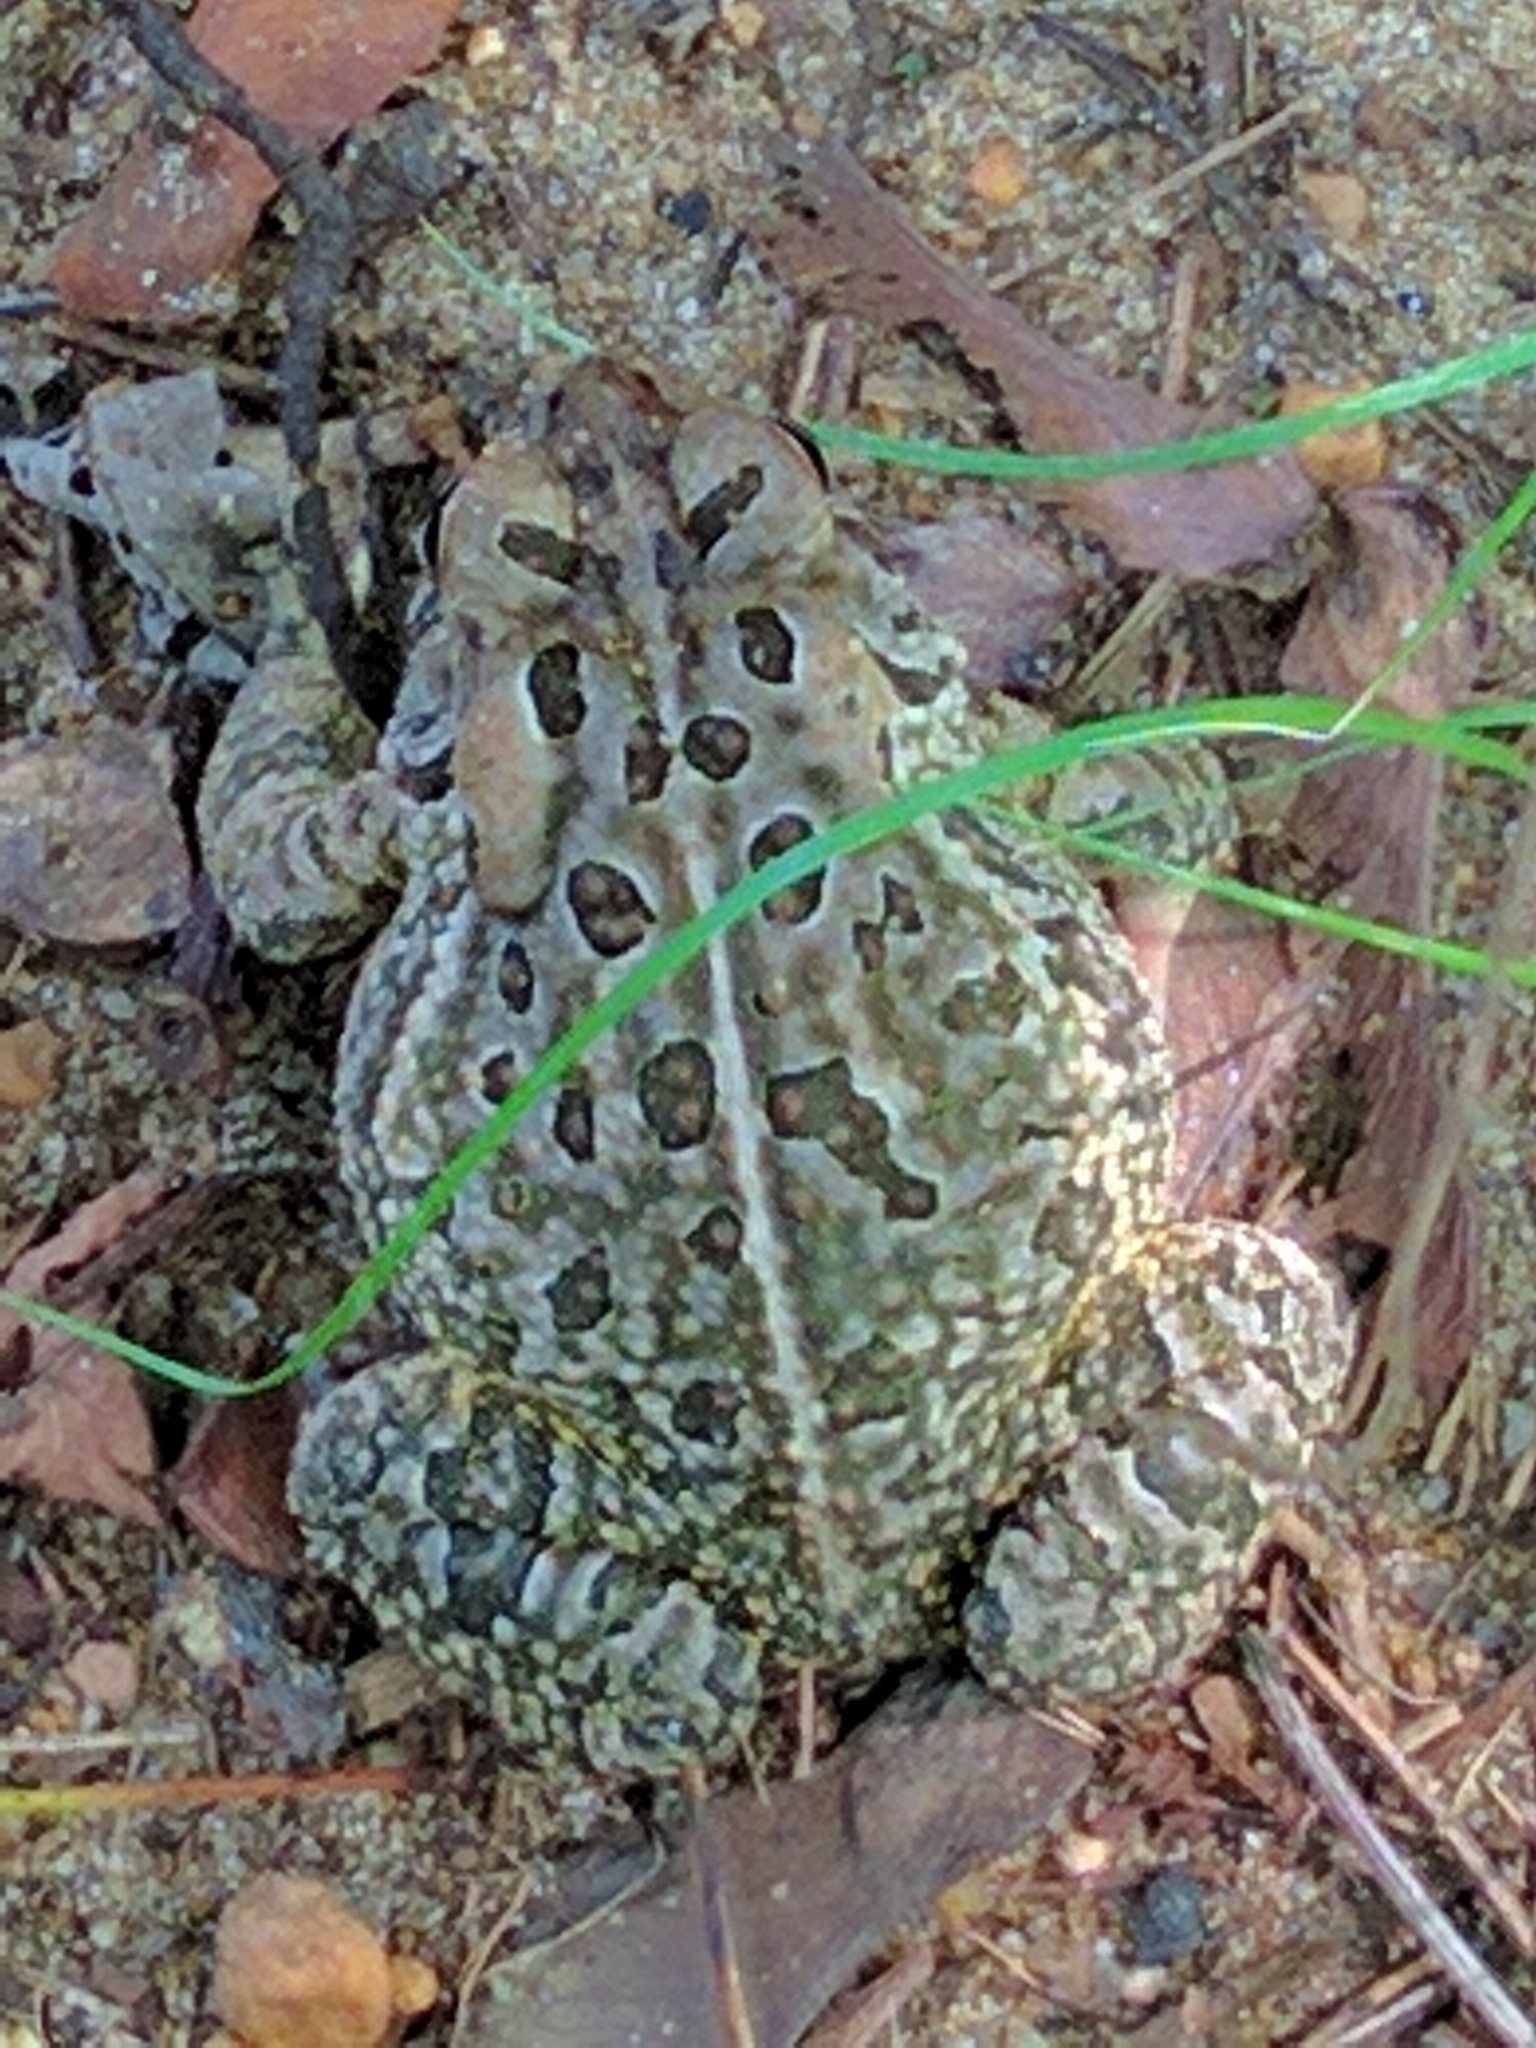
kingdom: Animalia
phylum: Chordata
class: Amphibia
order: Anura
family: Bufonidae
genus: Anaxyrus
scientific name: Anaxyrus fowleri
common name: Fowler's toad
